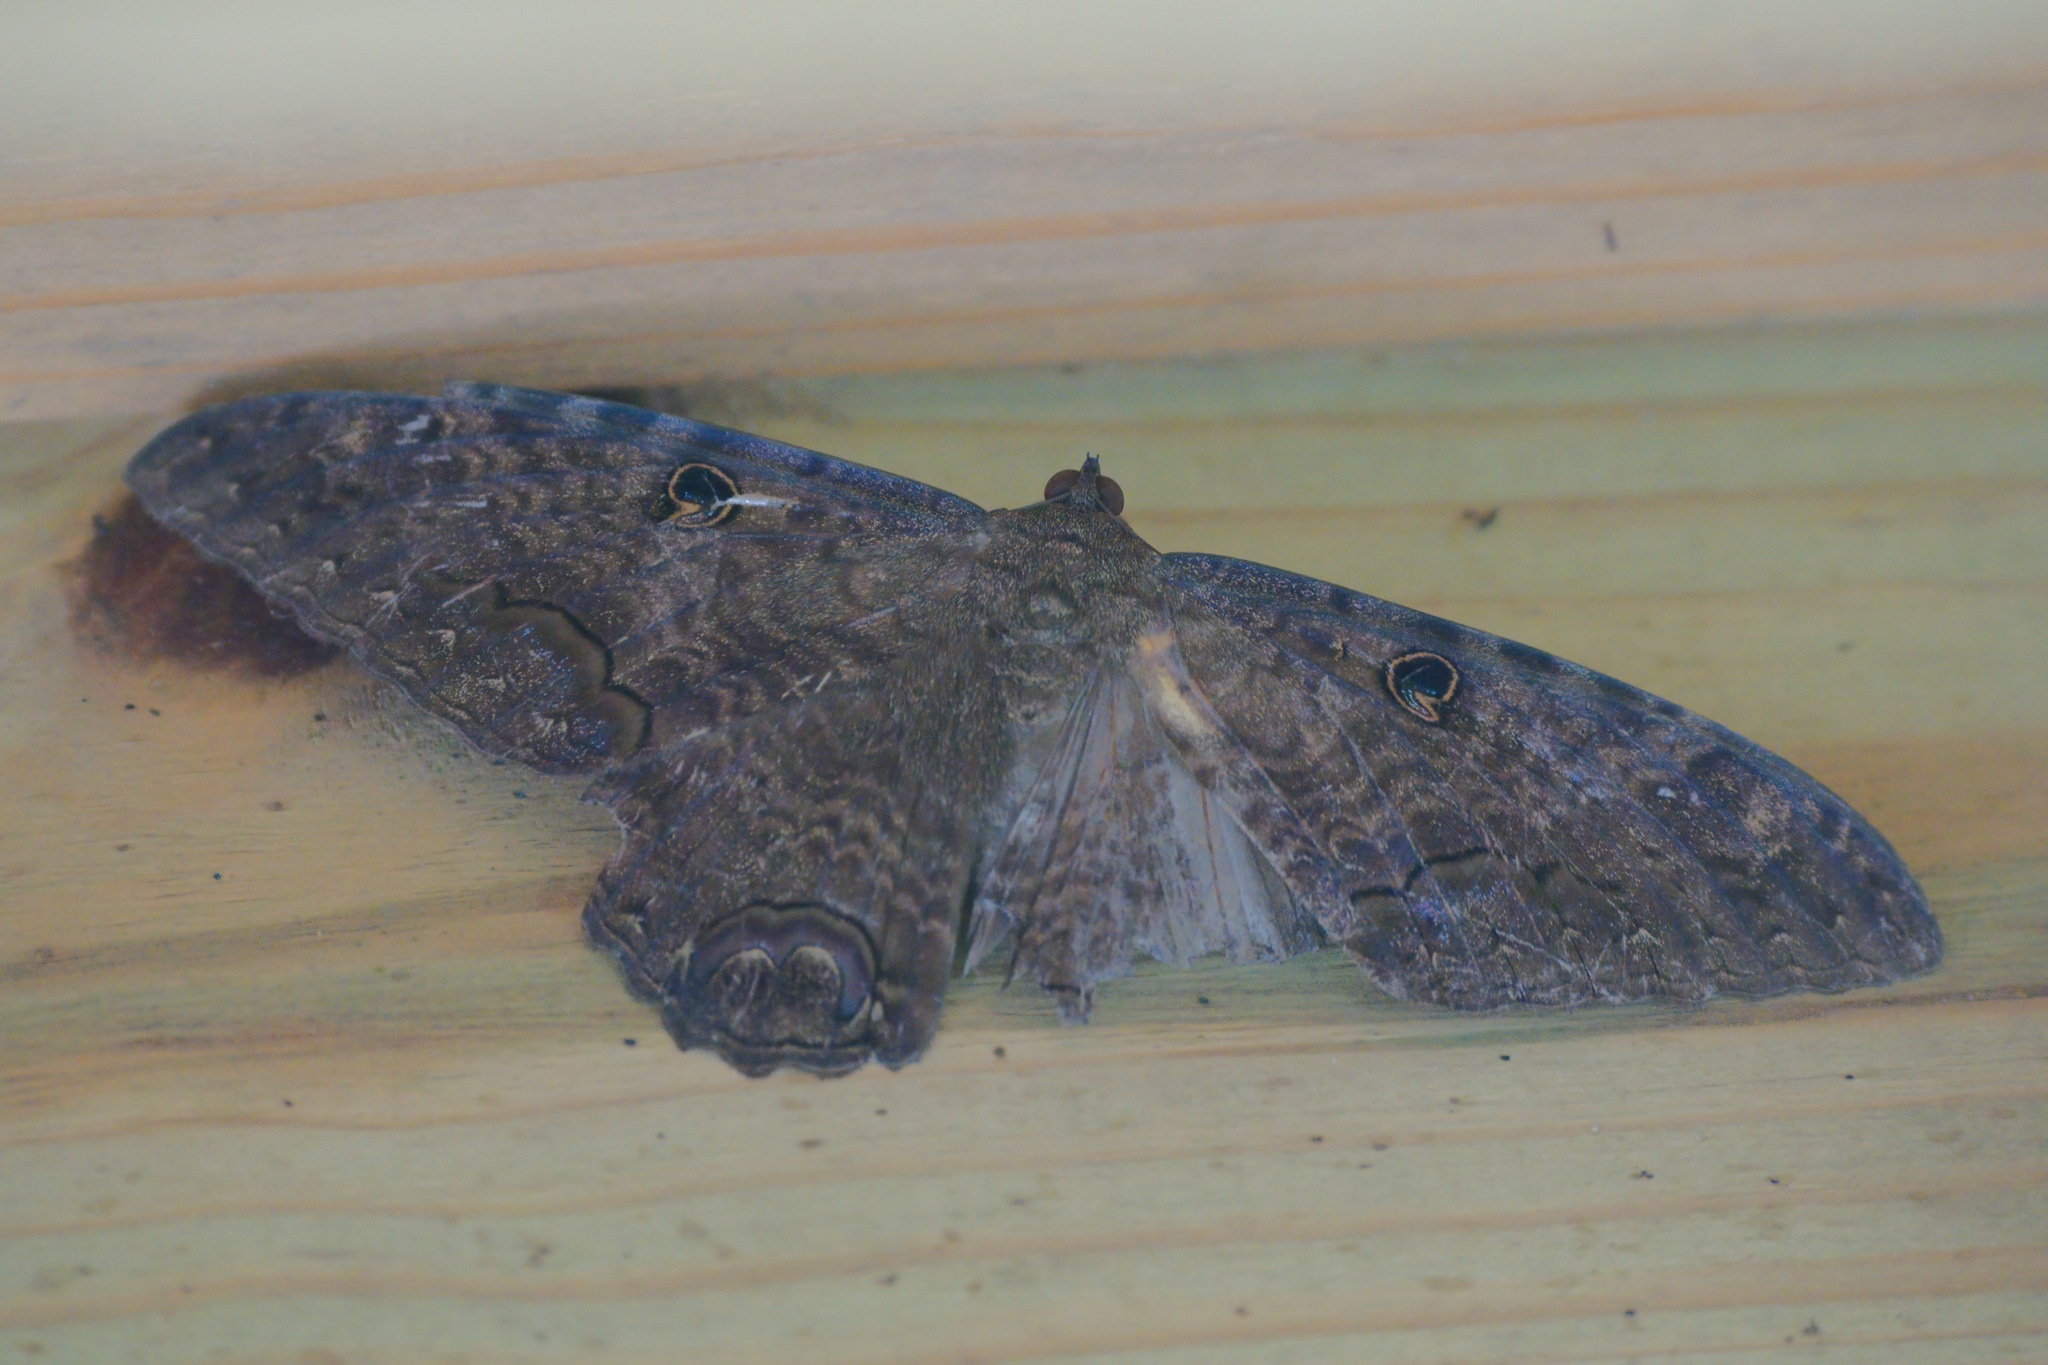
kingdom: Animalia
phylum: Arthropoda
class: Insecta
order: Lepidoptera
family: Erebidae
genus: Ascalapha
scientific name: Ascalapha odorata
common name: Black witch
